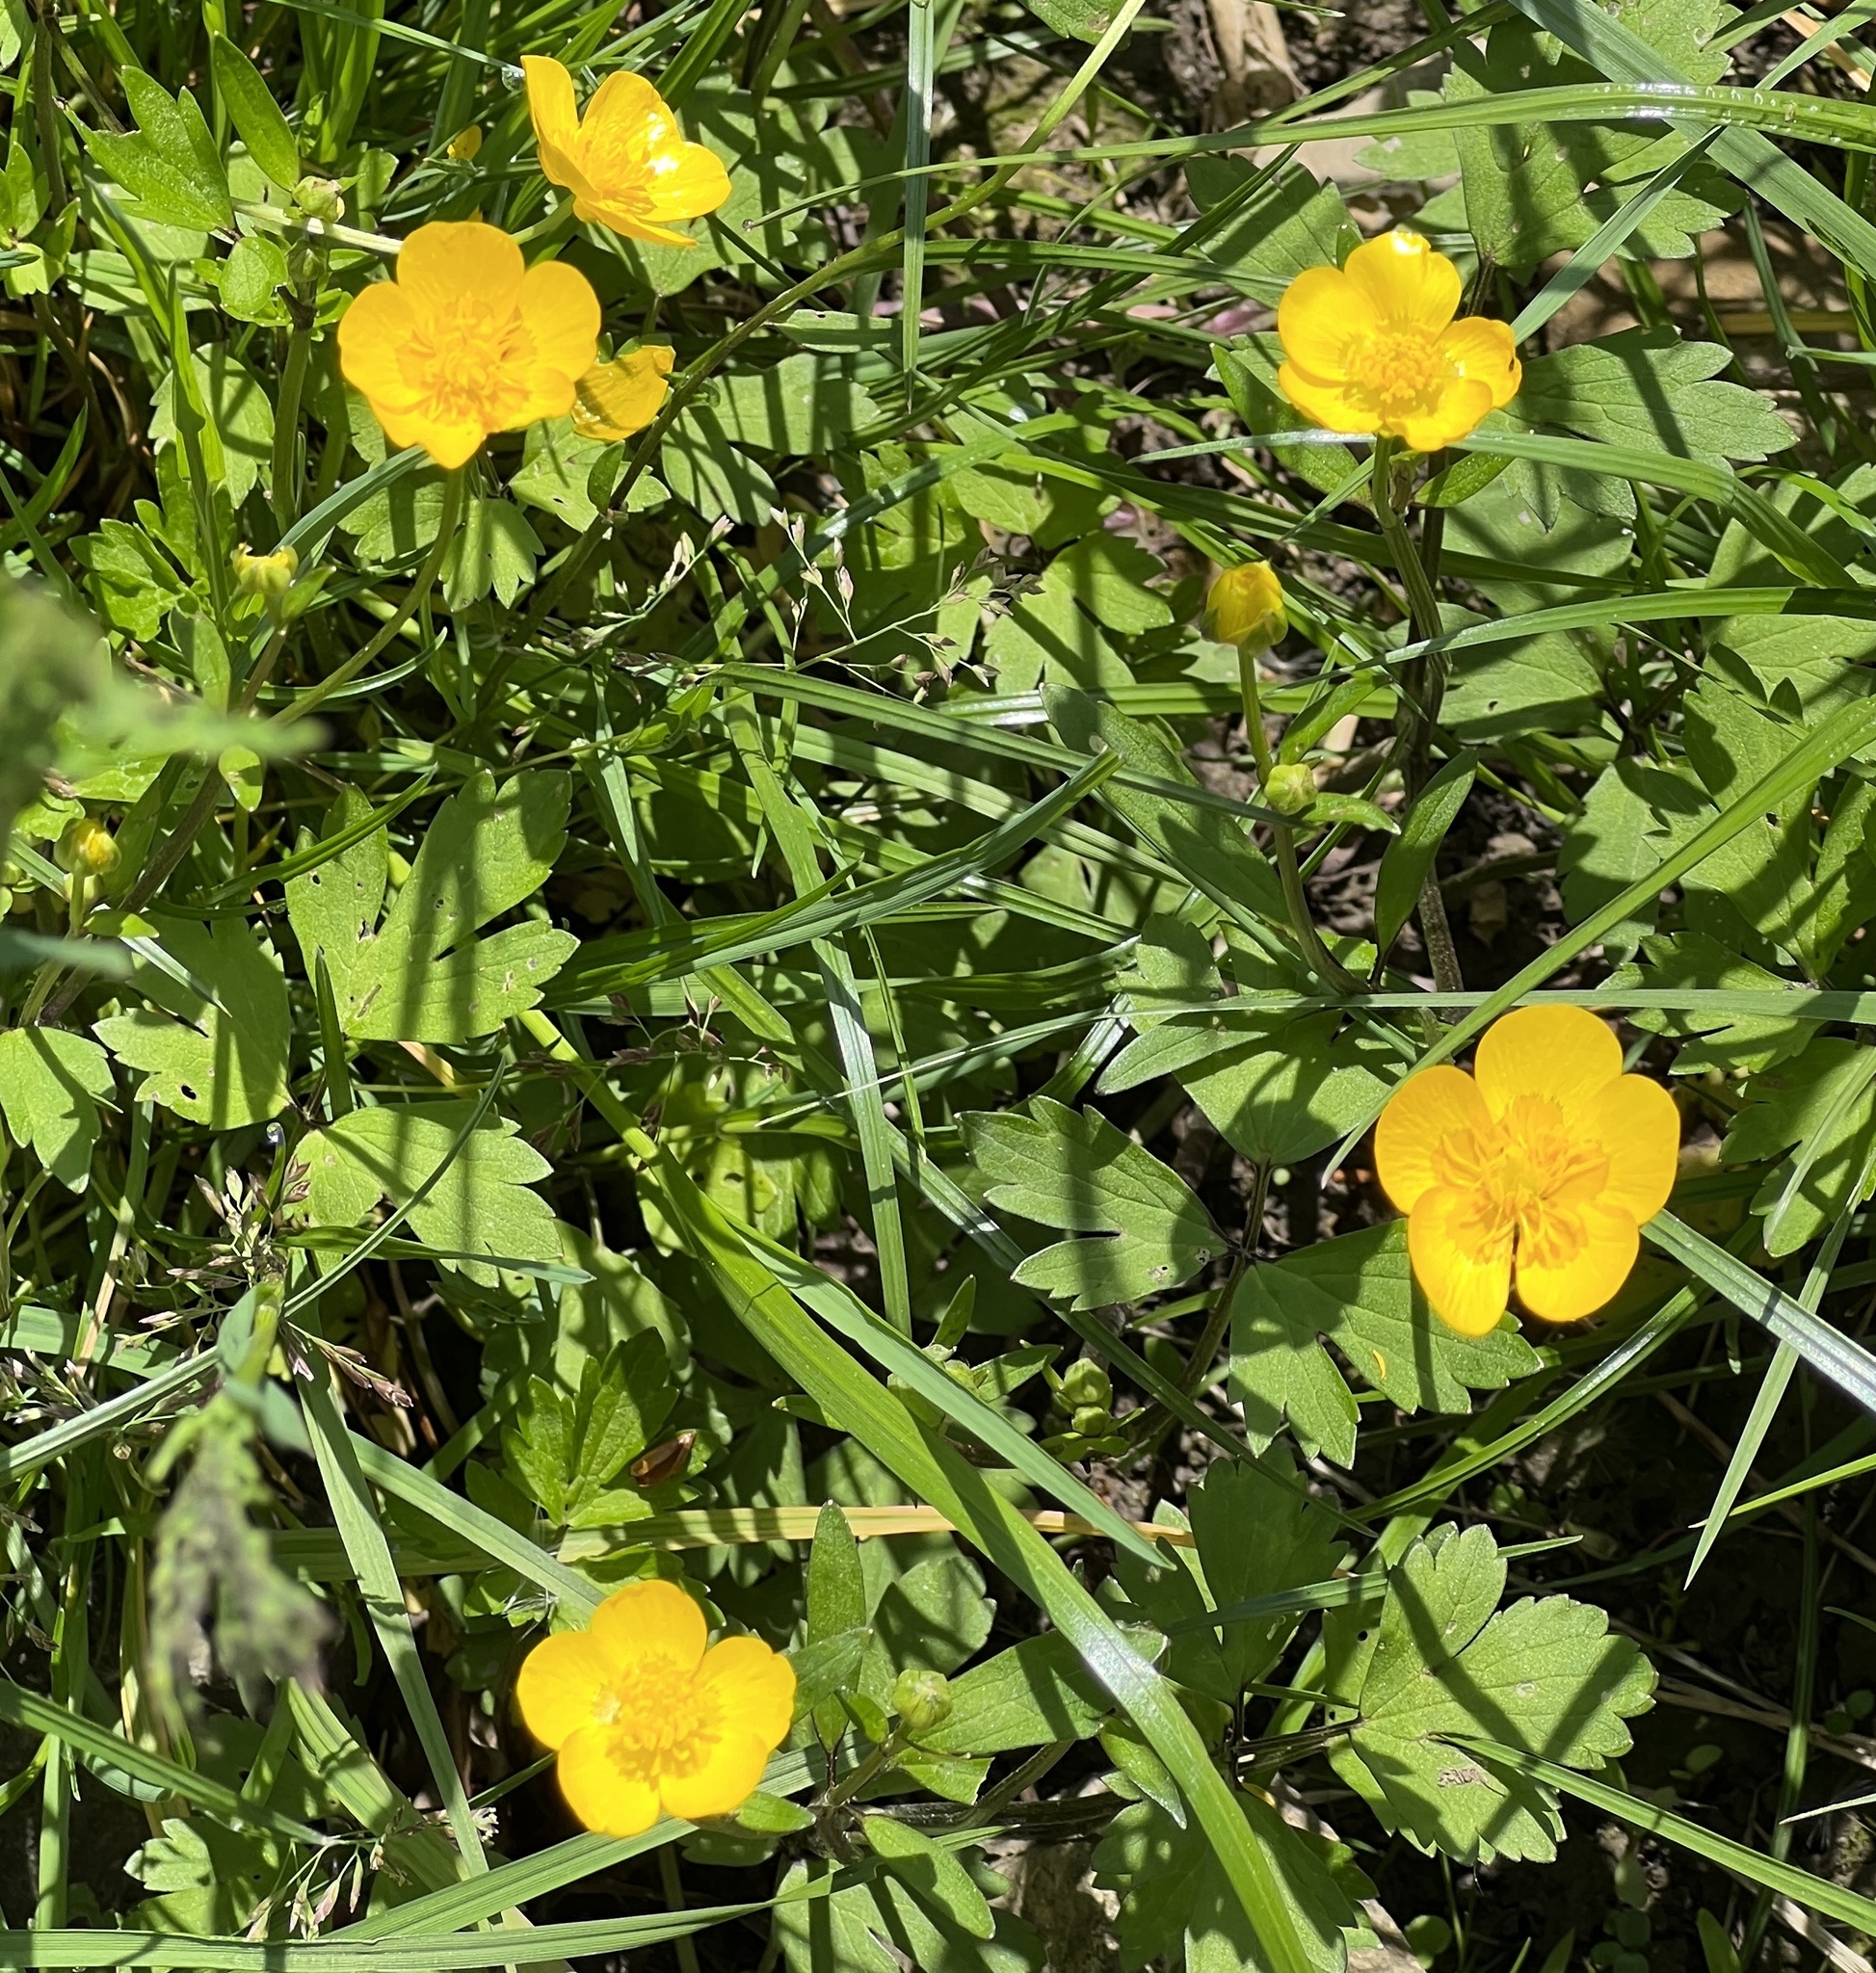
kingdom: Plantae
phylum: Tracheophyta
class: Magnoliopsida
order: Ranunculales
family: Ranunculaceae
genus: Ranunculus
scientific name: Ranunculus repens
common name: Creeping buttercup
